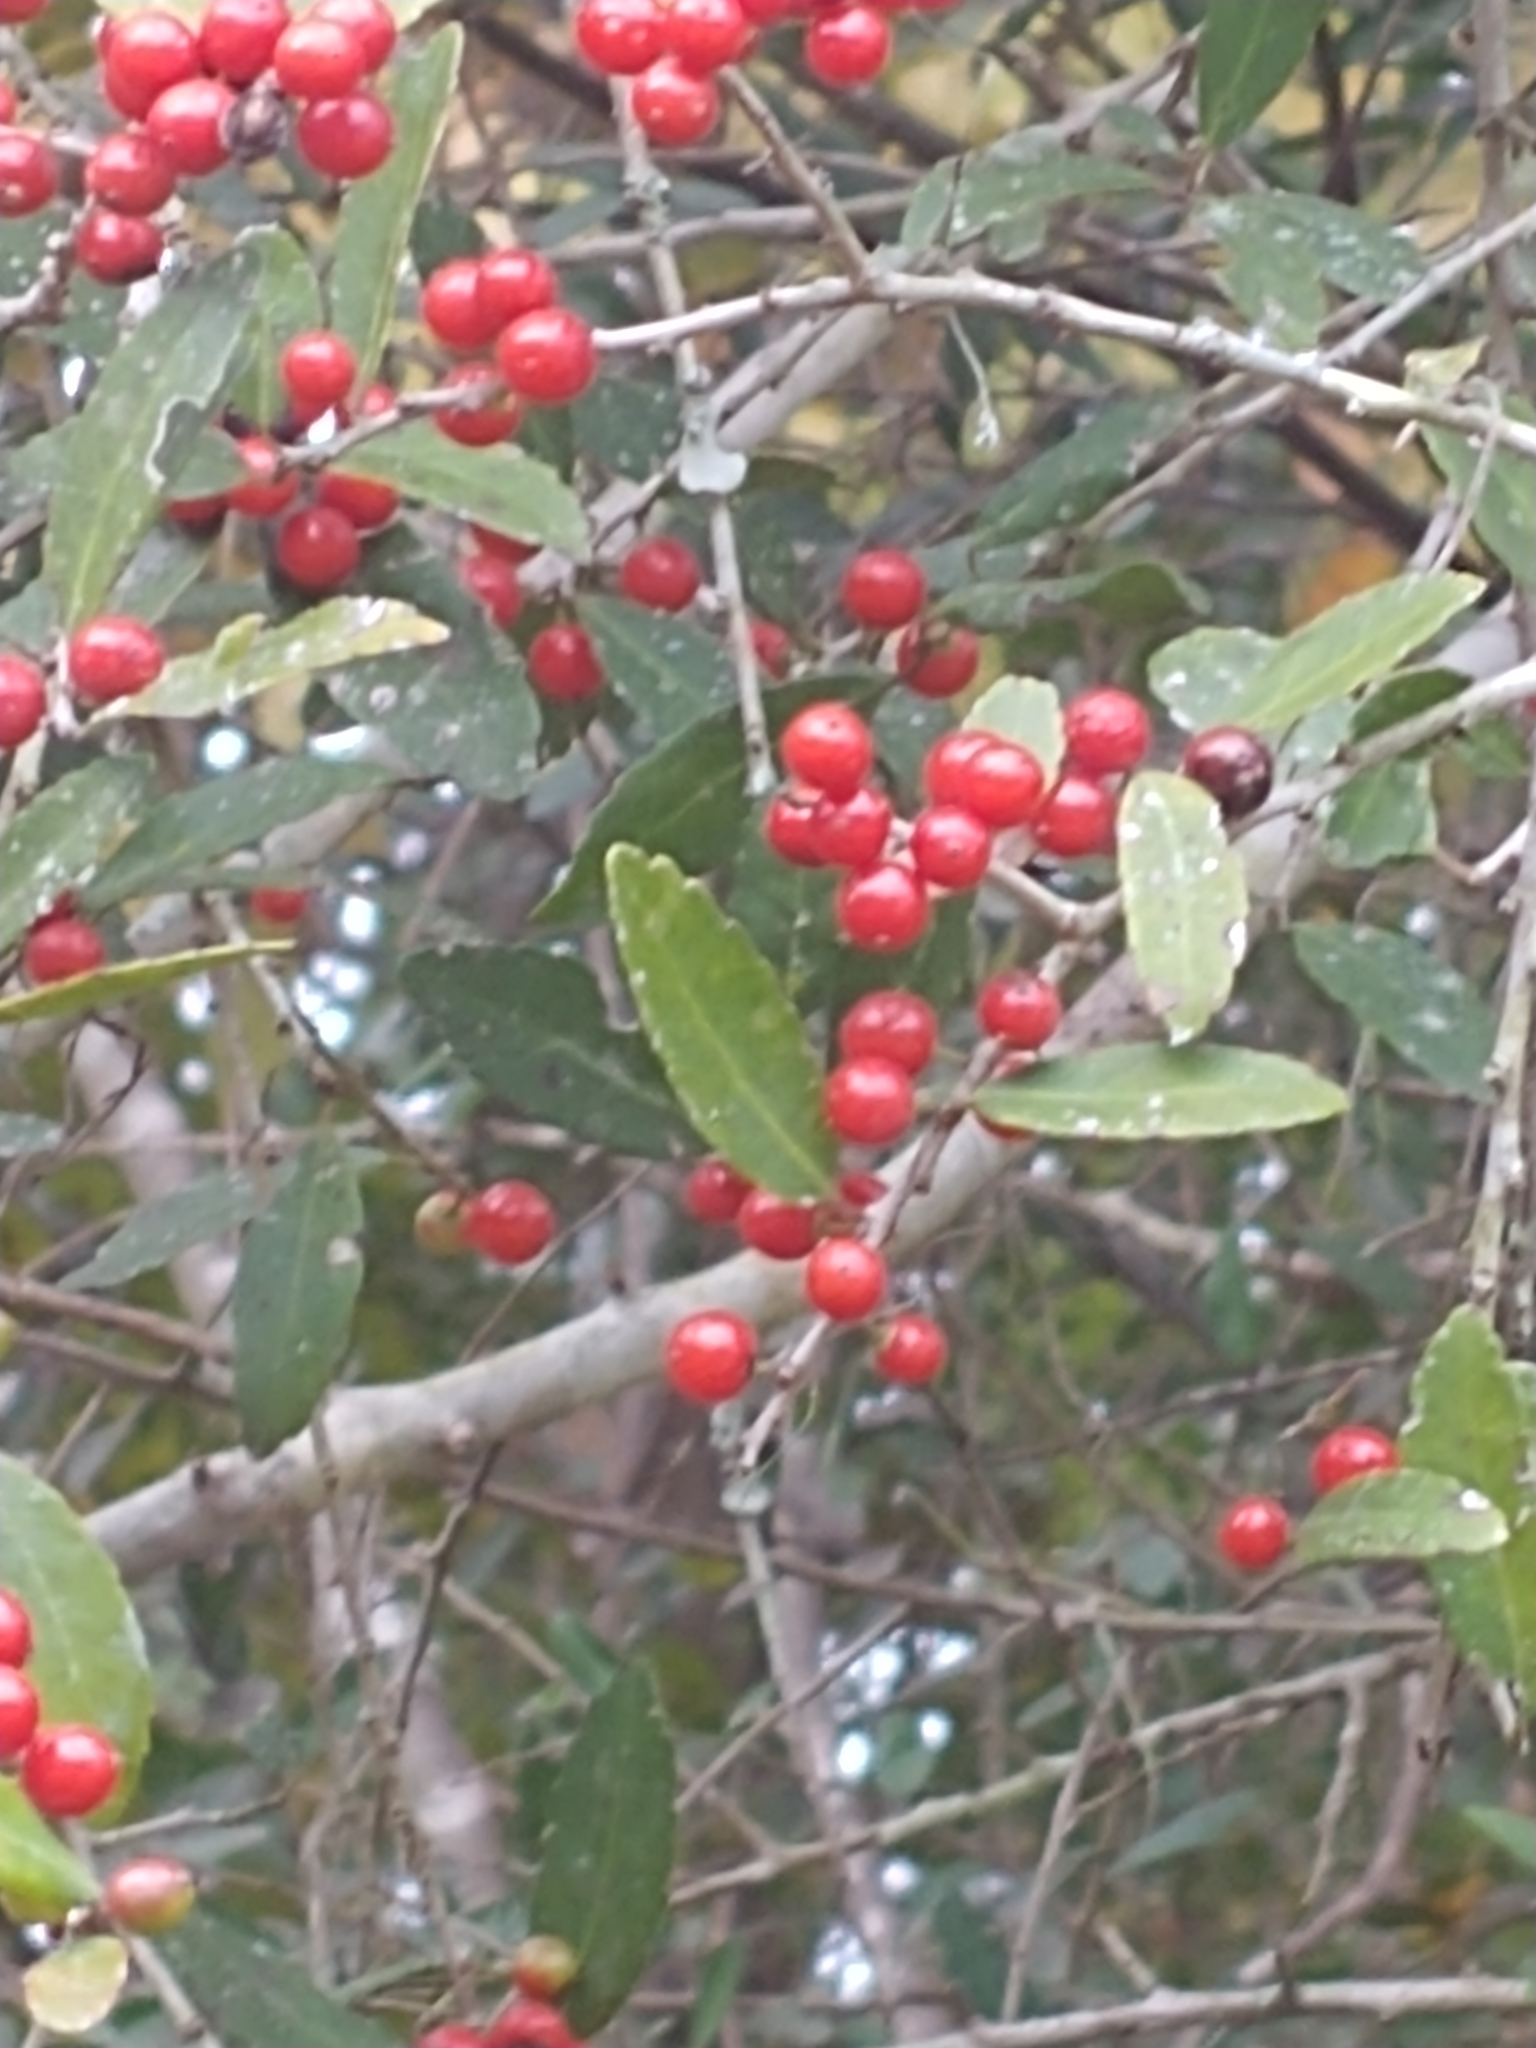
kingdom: Plantae
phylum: Tracheophyta
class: Magnoliopsida
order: Aquifoliales
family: Aquifoliaceae
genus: Ilex
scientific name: Ilex vomitoria
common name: Yaupon holly
